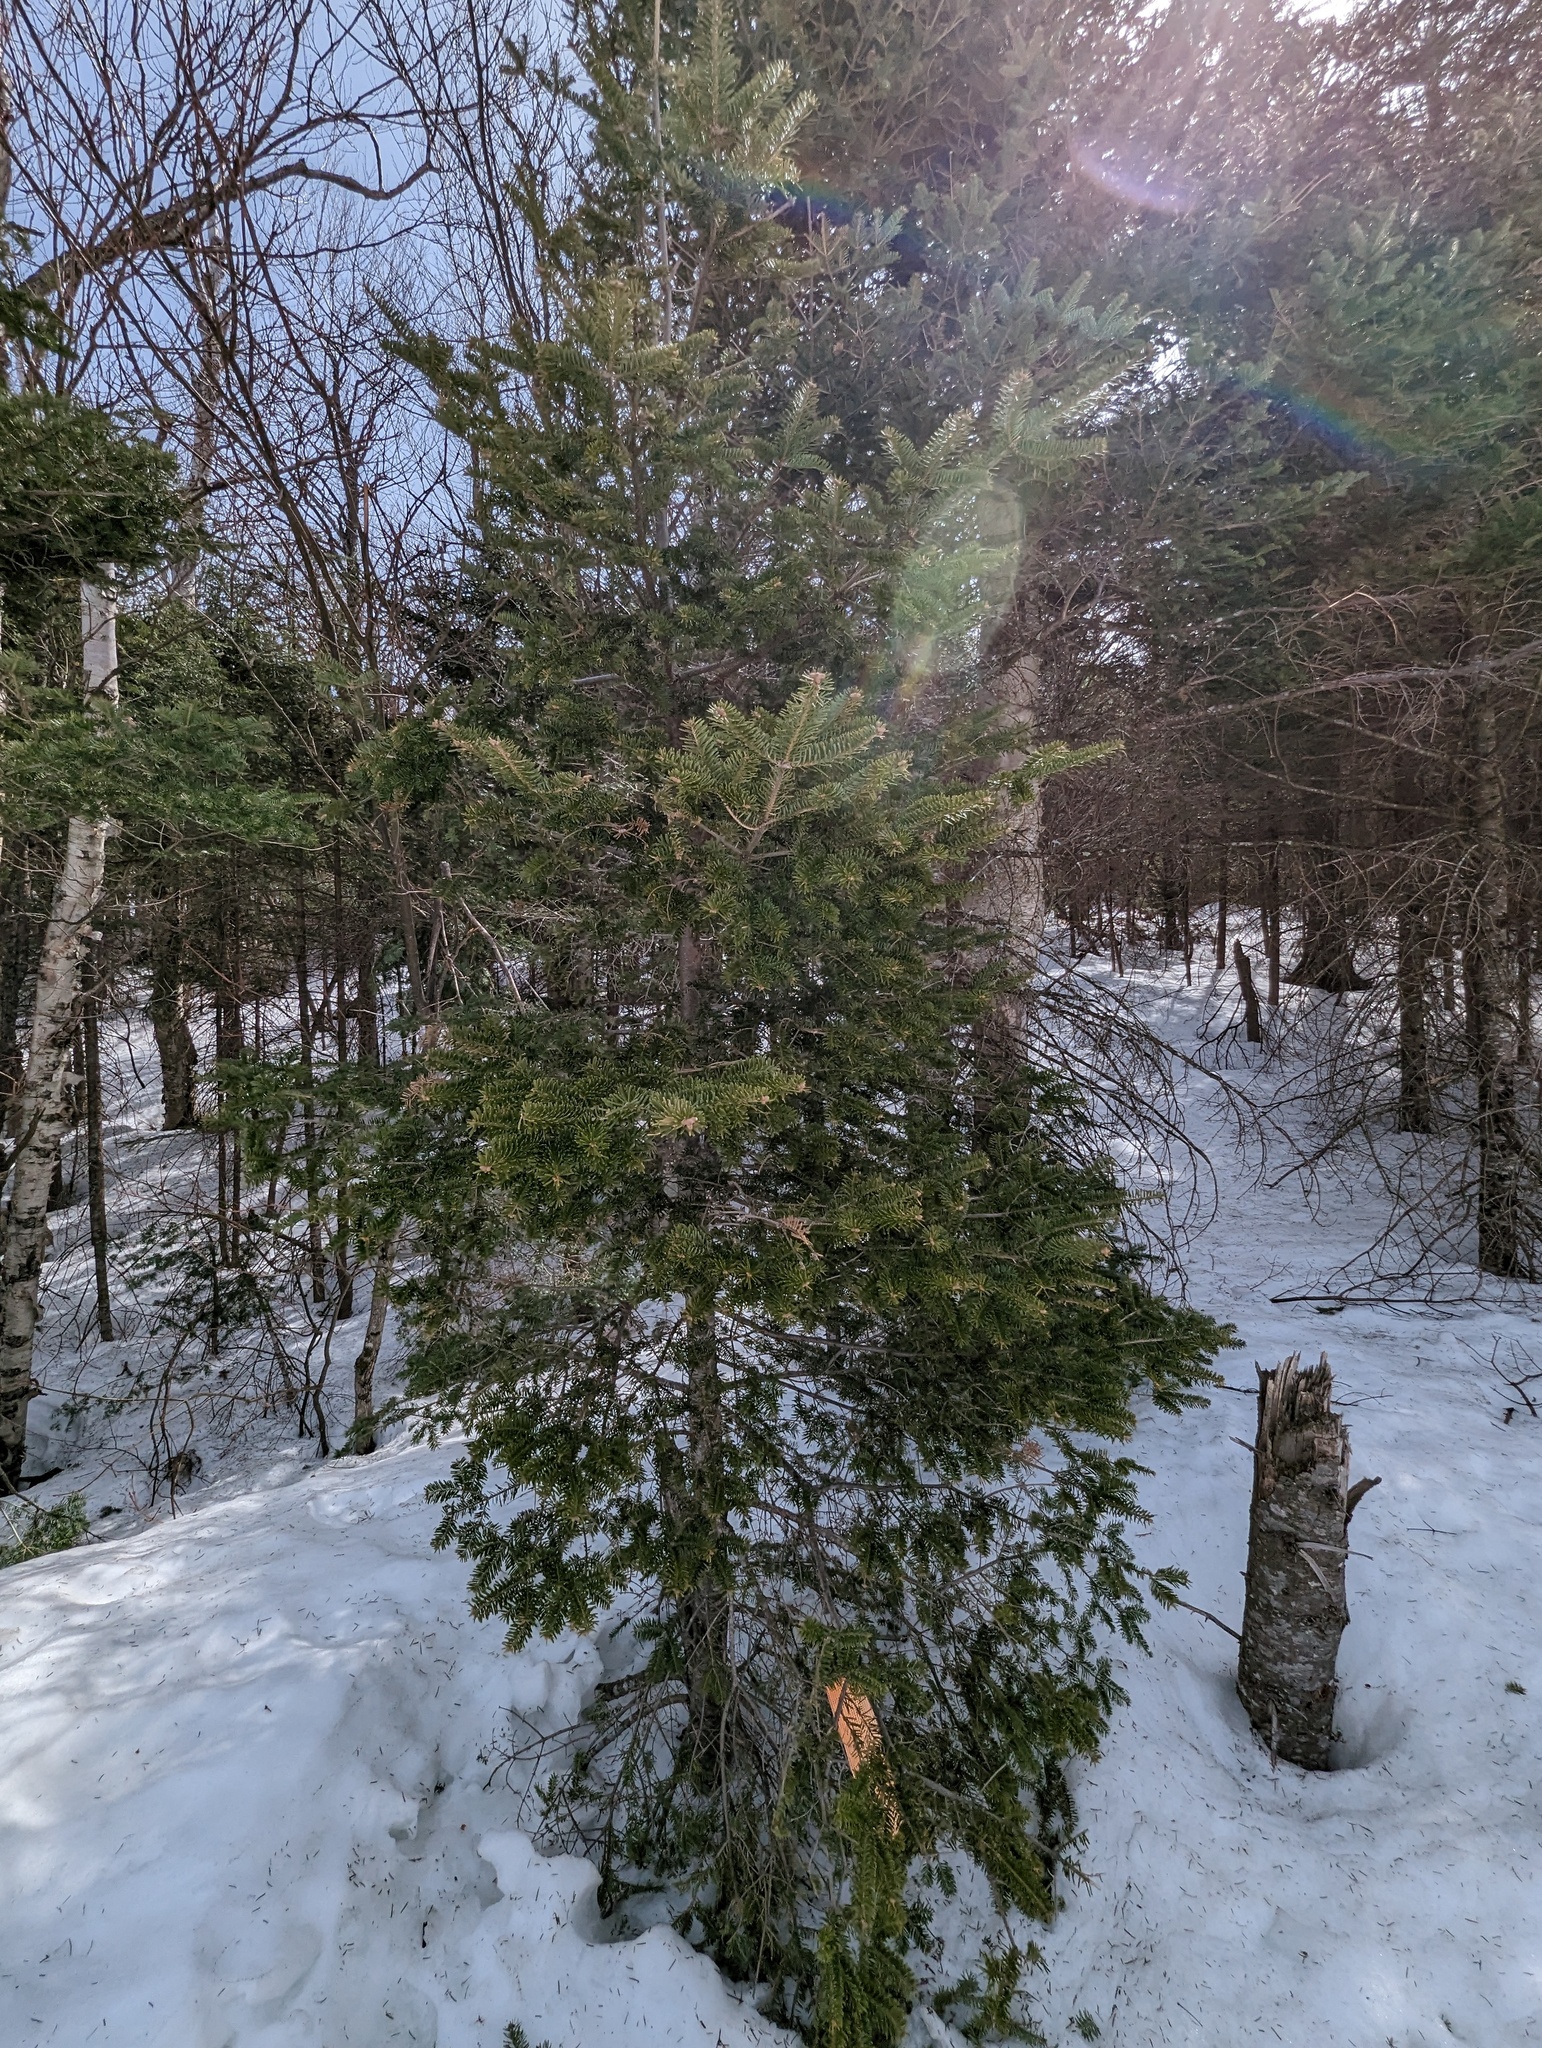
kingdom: Plantae
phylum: Tracheophyta
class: Pinopsida
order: Pinales
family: Pinaceae
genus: Abies
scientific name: Abies balsamea
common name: Balsam fir
